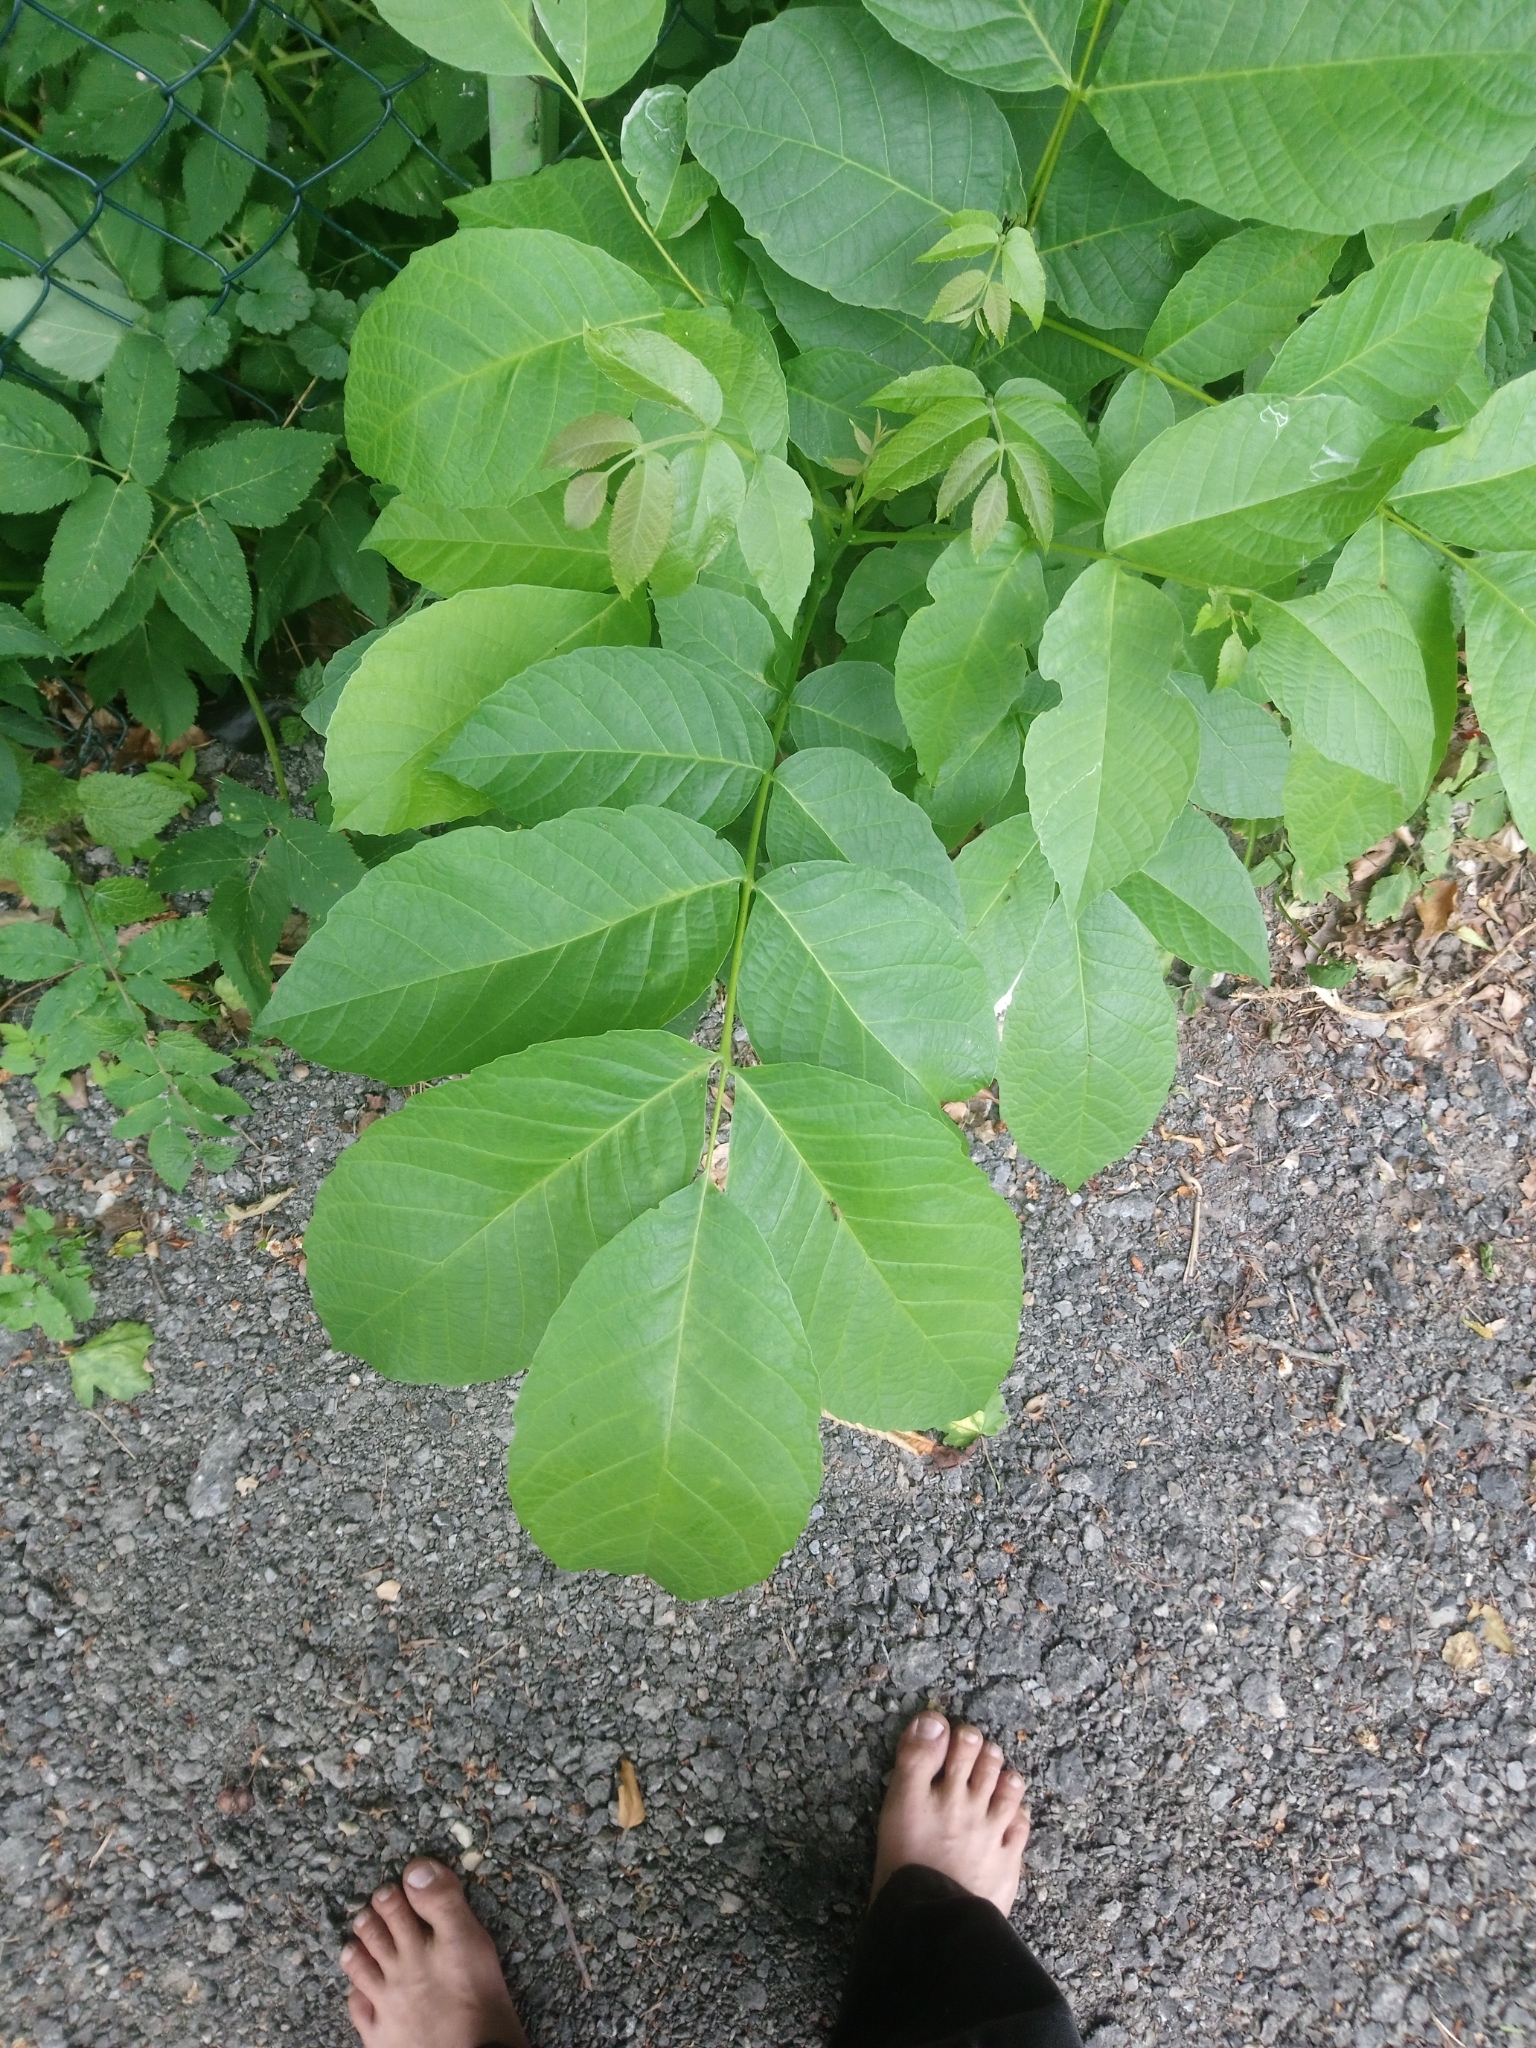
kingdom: Plantae
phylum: Tracheophyta
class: Magnoliopsida
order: Fagales
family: Juglandaceae
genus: Juglans
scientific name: Juglans regia
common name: Walnut
